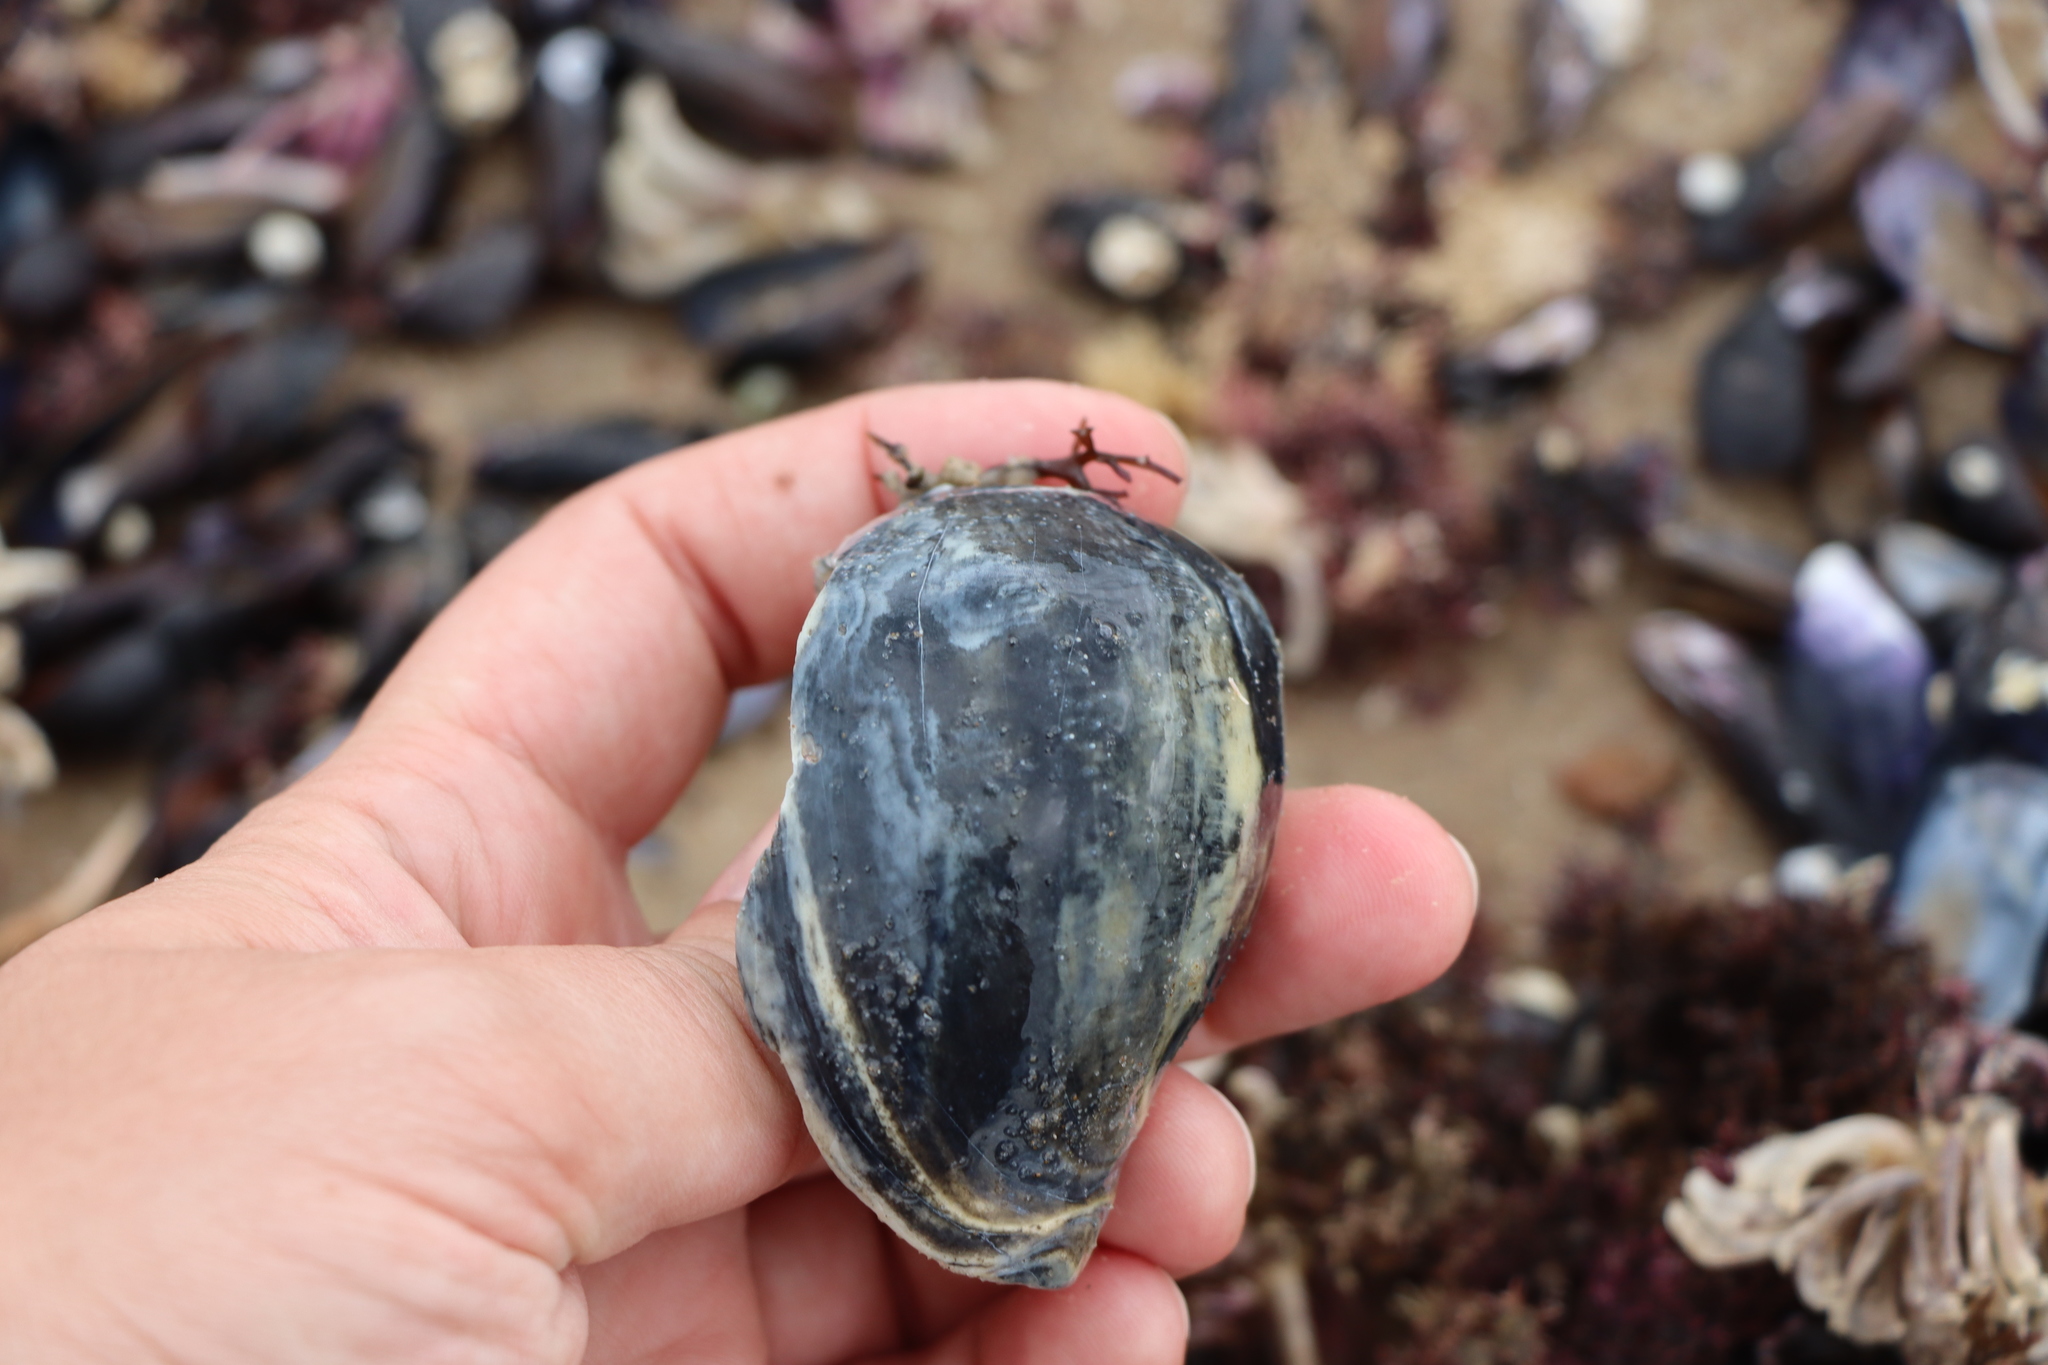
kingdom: Animalia
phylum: Mollusca
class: Gastropoda
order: Neogastropoda
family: Volutidae
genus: Pachycymbiola
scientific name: Pachycymbiola brasiliana
